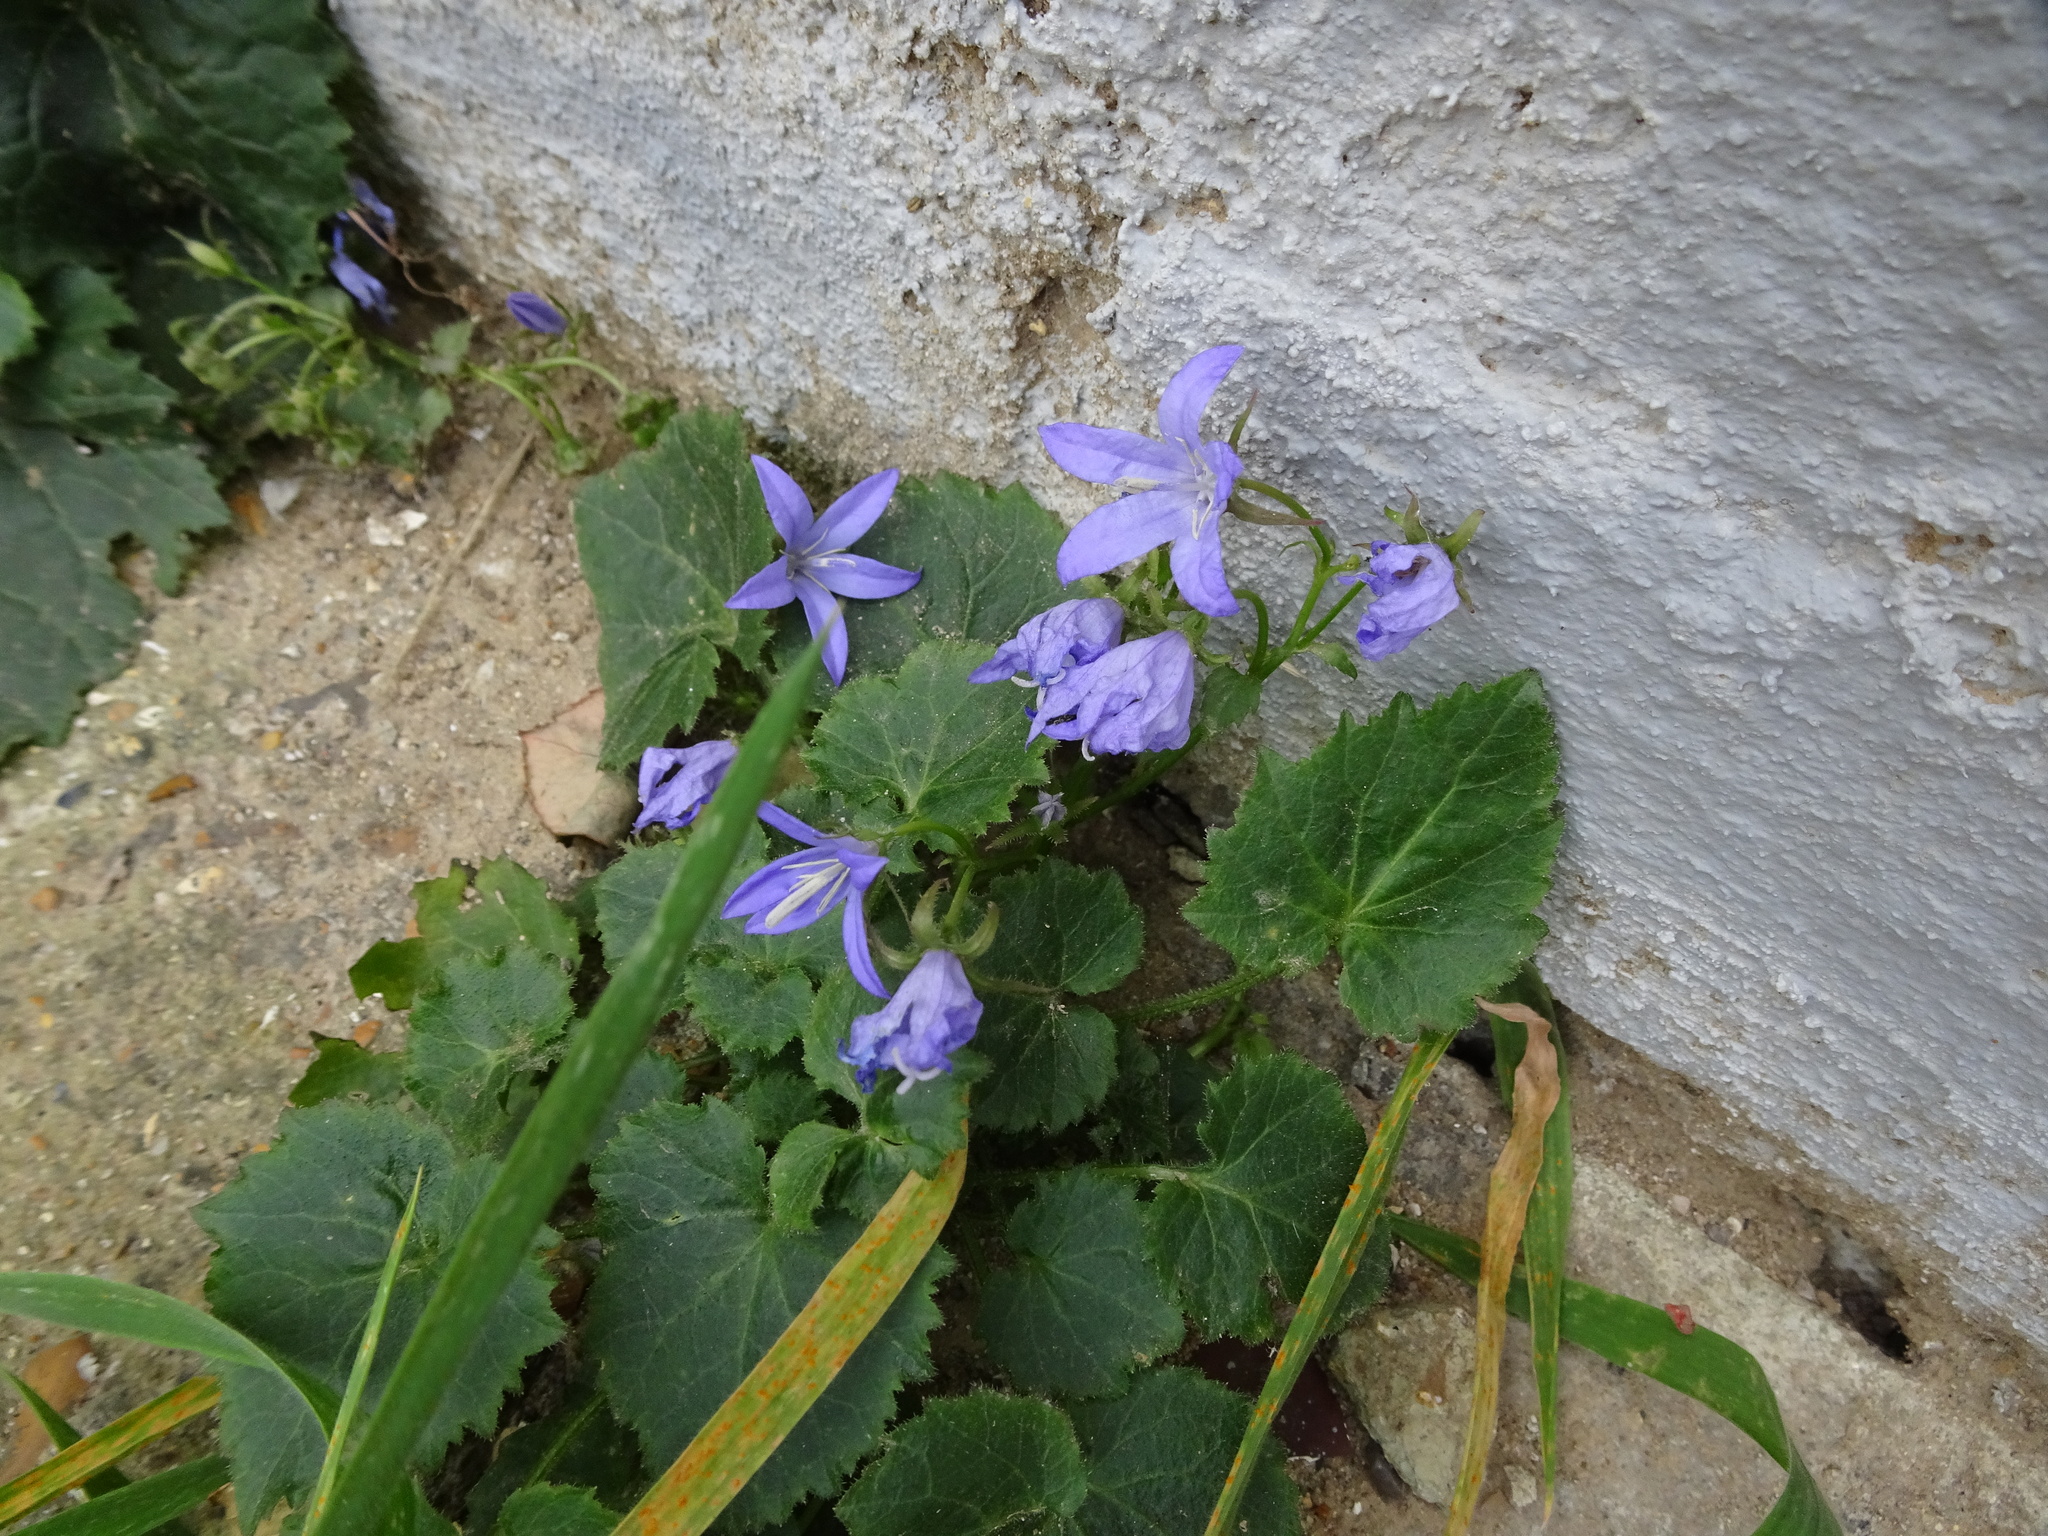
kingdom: Plantae
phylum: Tracheophyta
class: Magnoliopsida
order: Asterales
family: Campanulaceae
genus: Campanula
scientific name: Campanula poscharskyana
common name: Trailing bellflower
